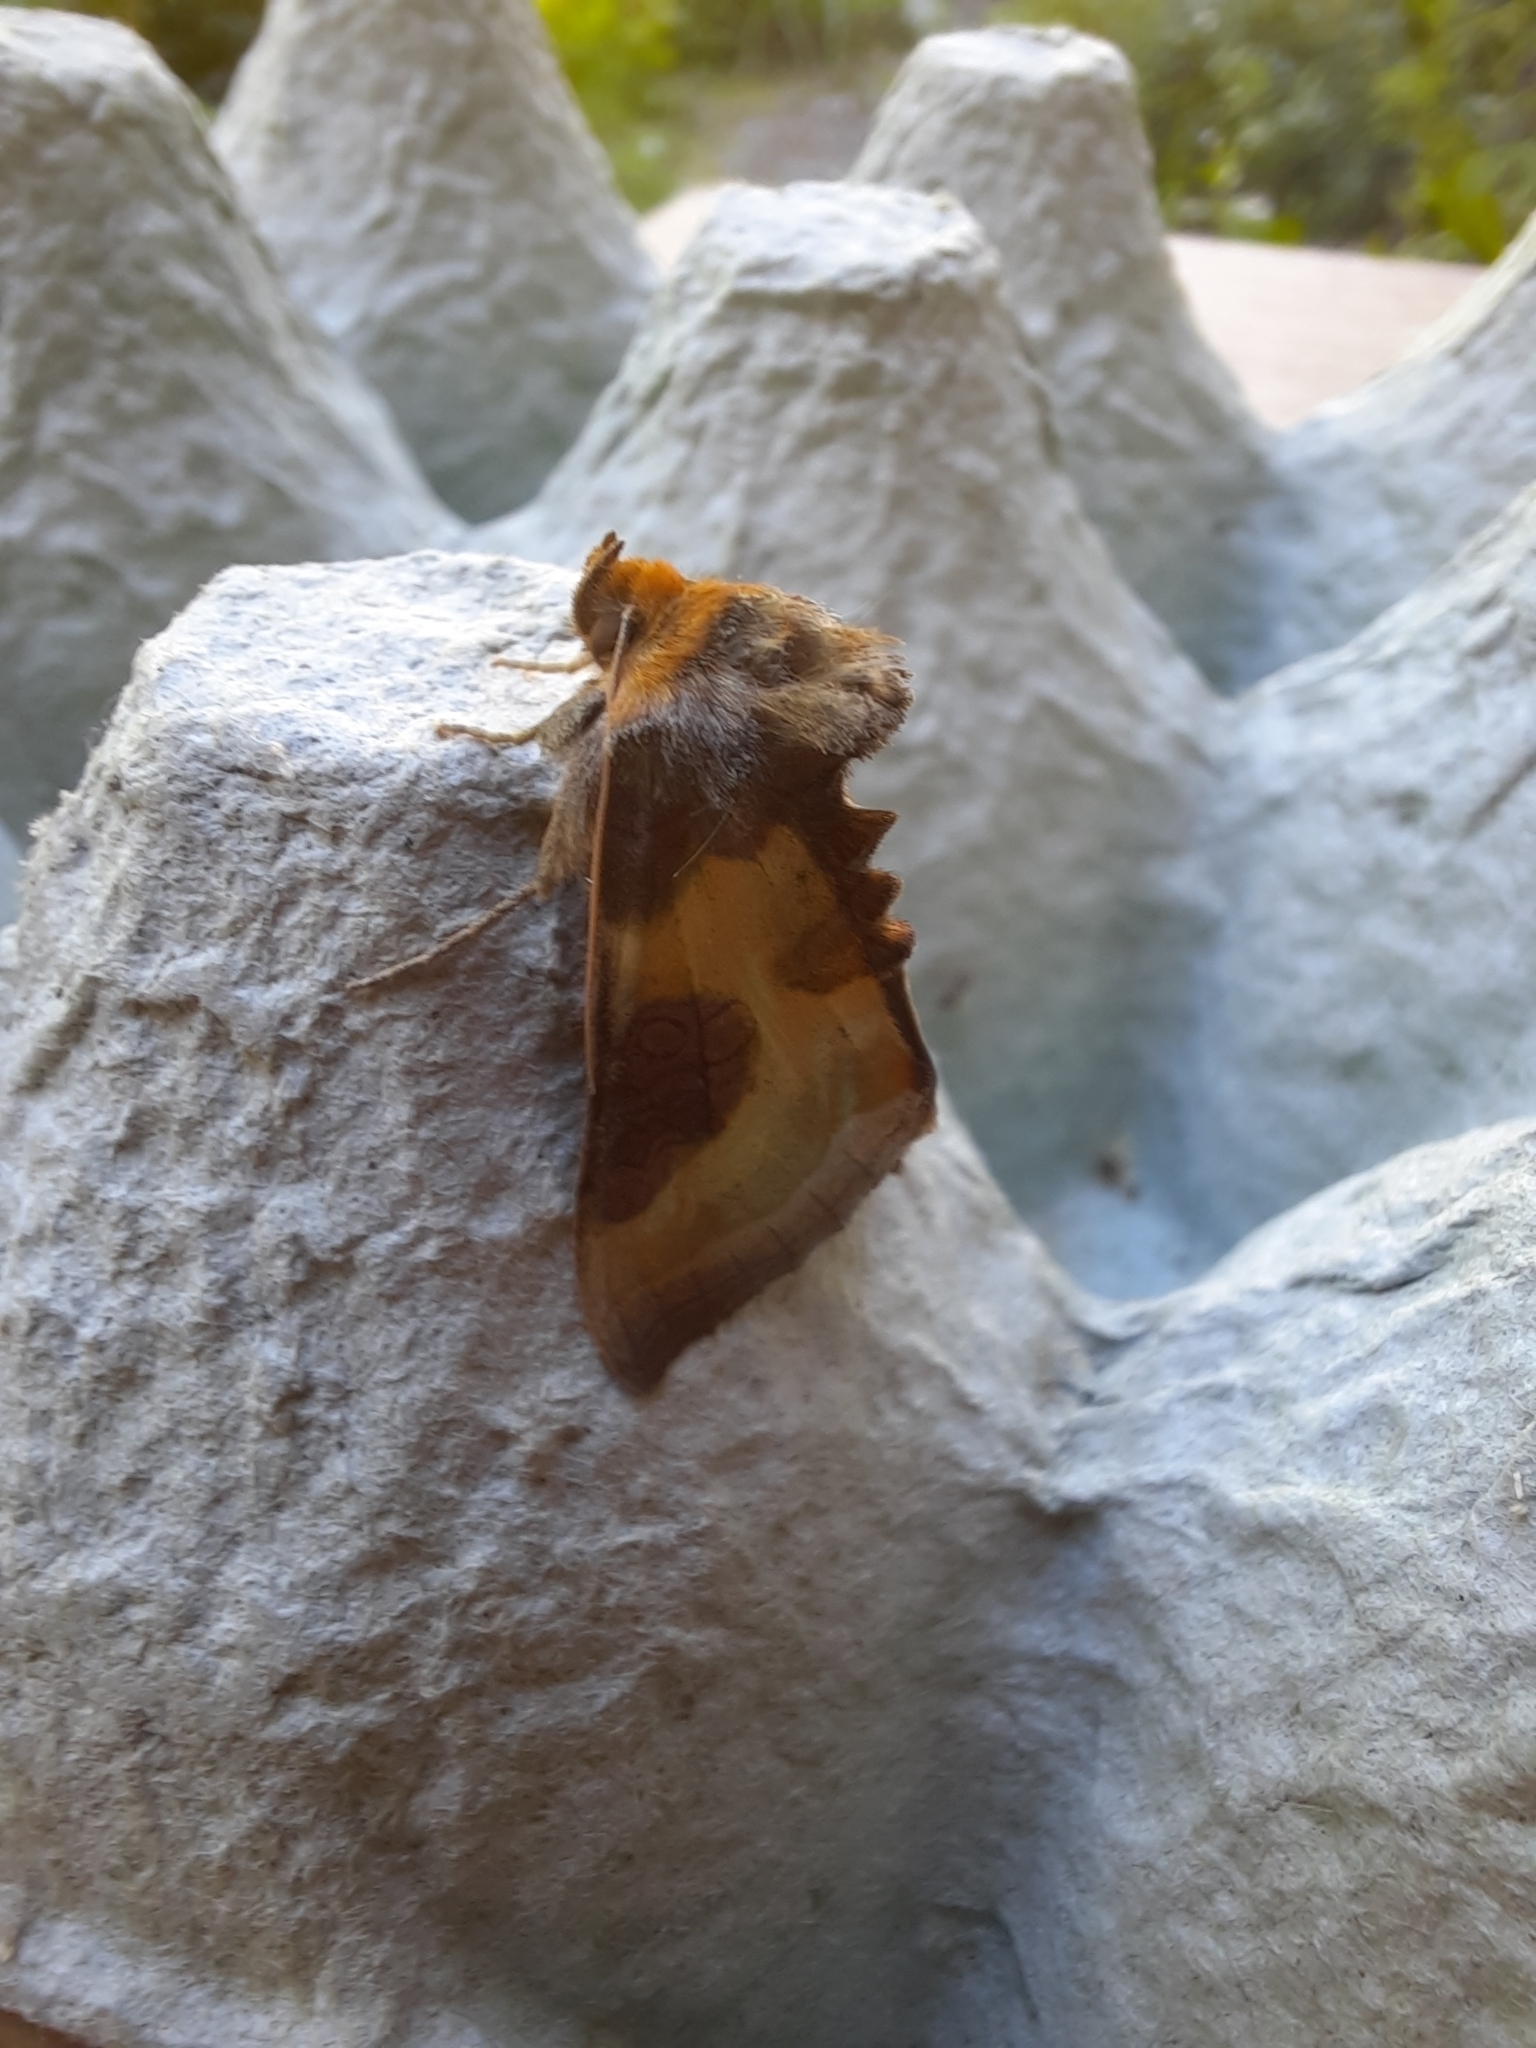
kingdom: Animalia
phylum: Arthropoda
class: Insecta
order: Lepidoptera
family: Noctuidae
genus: Diachrysia
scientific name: Diachrysia chrysitis
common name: Burnished brass
